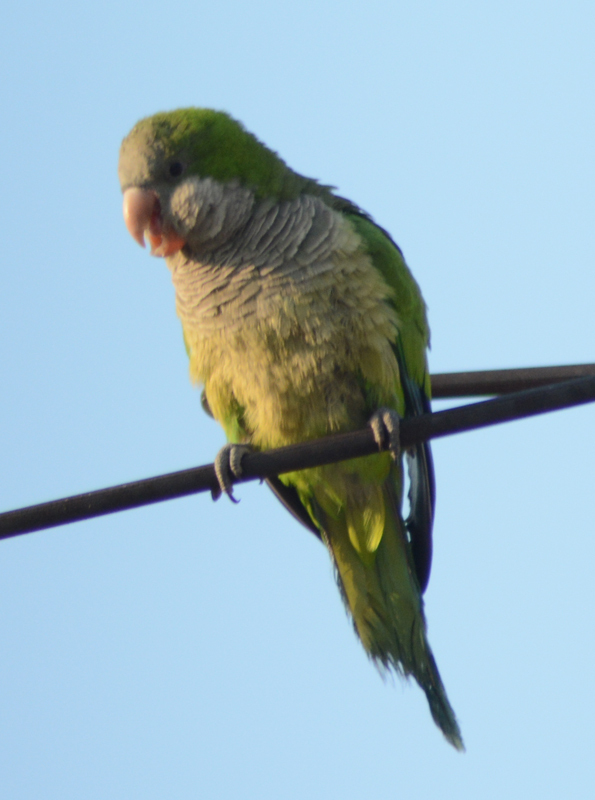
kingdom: Animalia
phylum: Chordata
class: Aves
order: Psittaciformes
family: Psittacidae
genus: Myiopsitta
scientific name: Myiopsitta monachus
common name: Monk parakeet
